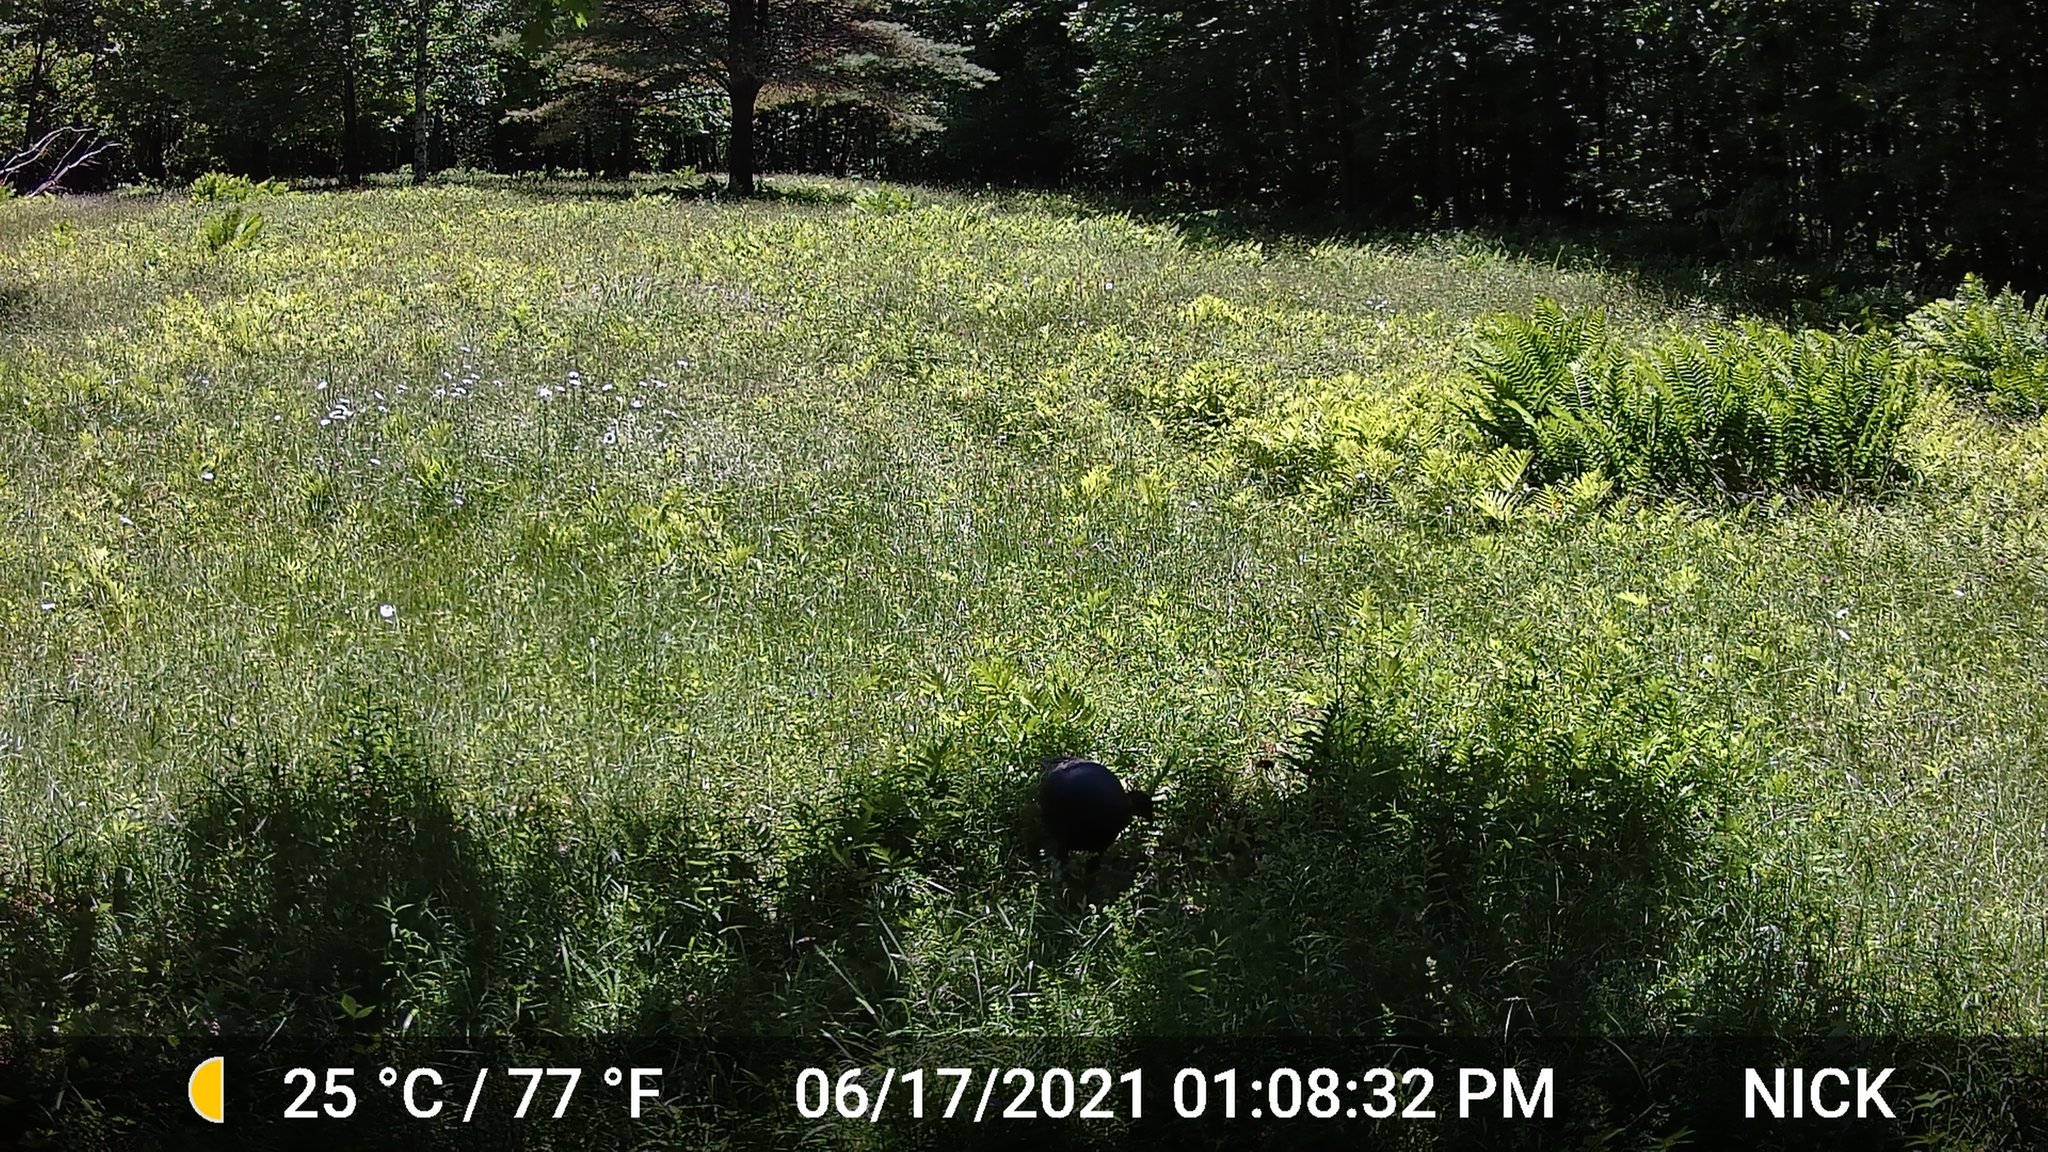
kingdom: Animalia
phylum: Chordata
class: Aves
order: Galliformes
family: Phasianidae
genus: Meleagris
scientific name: Meleagris gallopavo
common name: Wild turkey
